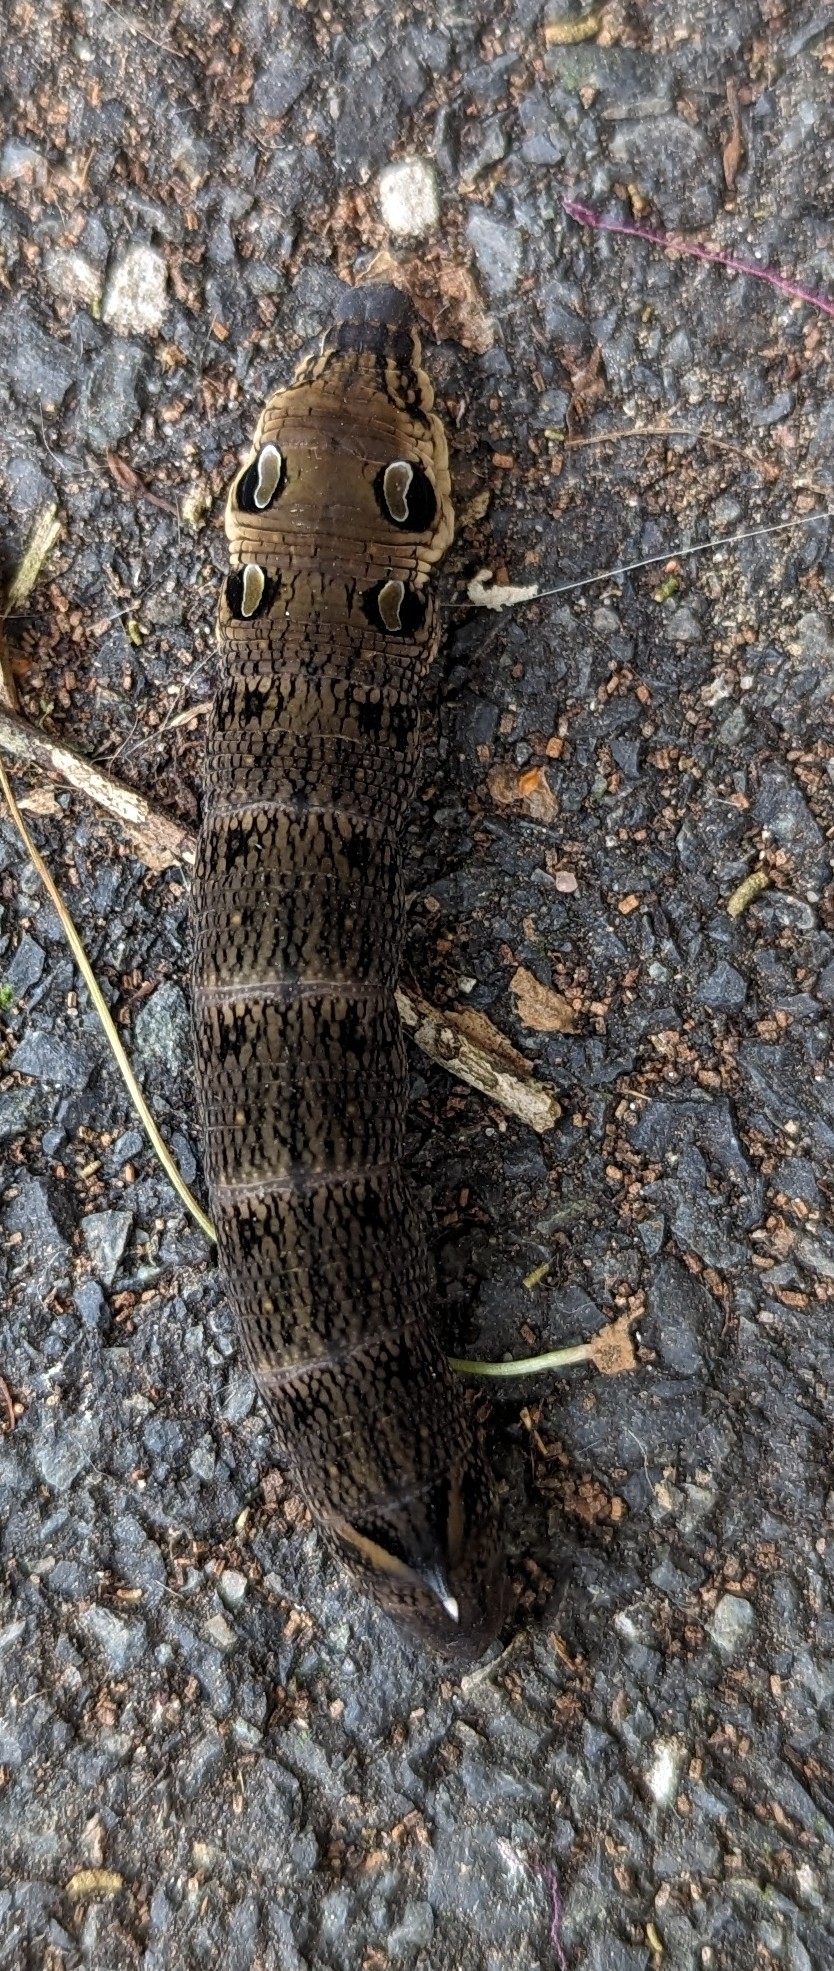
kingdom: Animalia
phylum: Arthropoda
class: Insecta
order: Lepidoptera
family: Sphingidae
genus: Deilephila
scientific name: Deilephila elpenor
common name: Elephant hawk-moth
